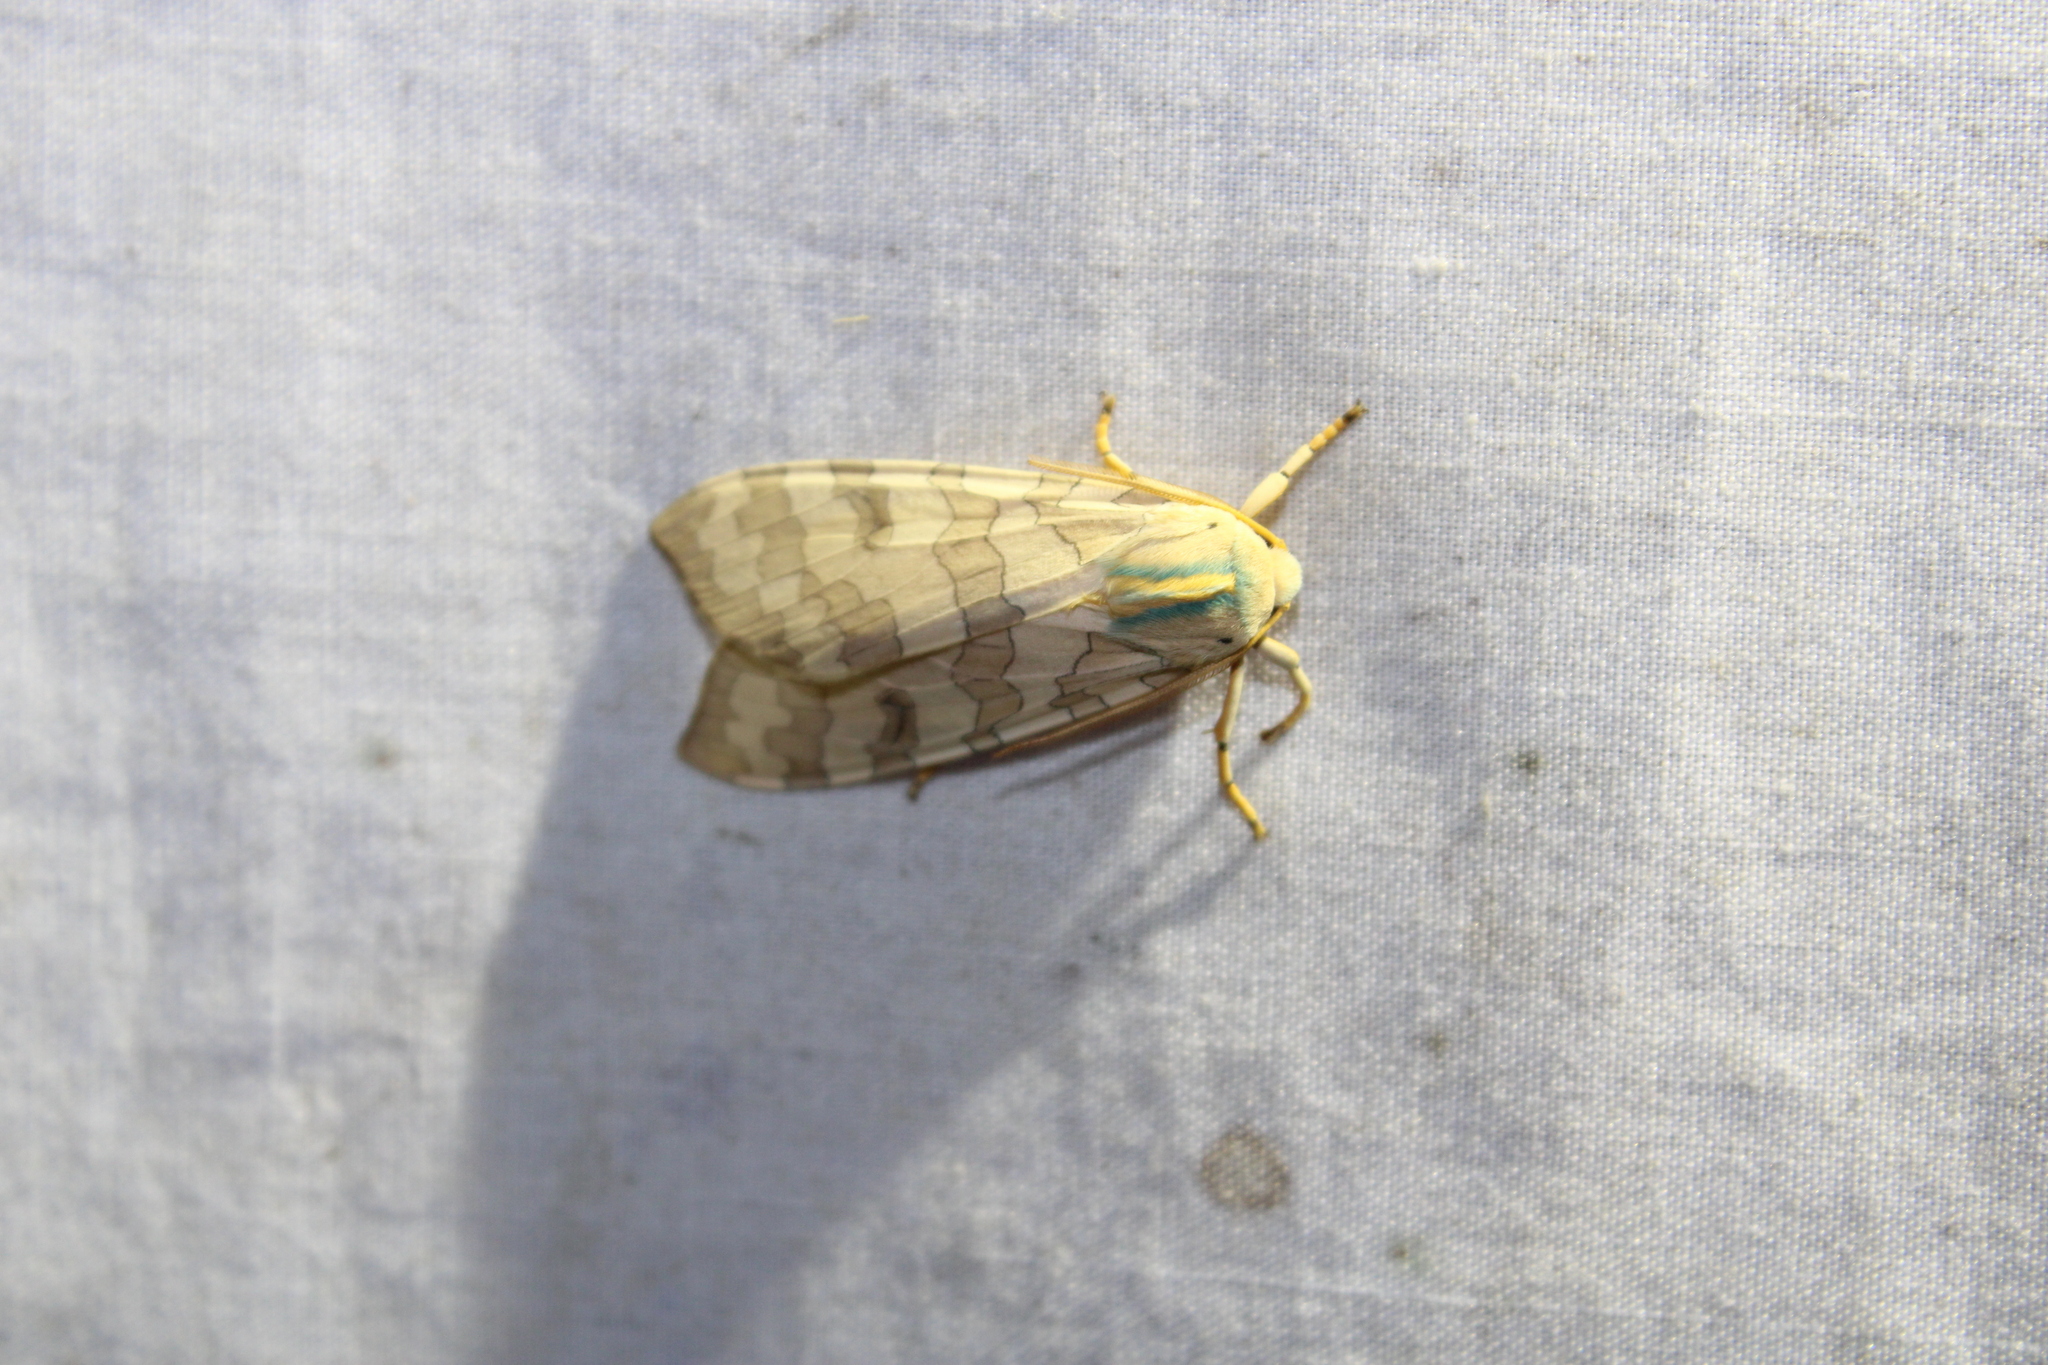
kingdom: Animalia
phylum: Arthropoda
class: Insecta
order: Lepidoptera
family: Erebidae
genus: Halysidota
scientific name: Halysidota
